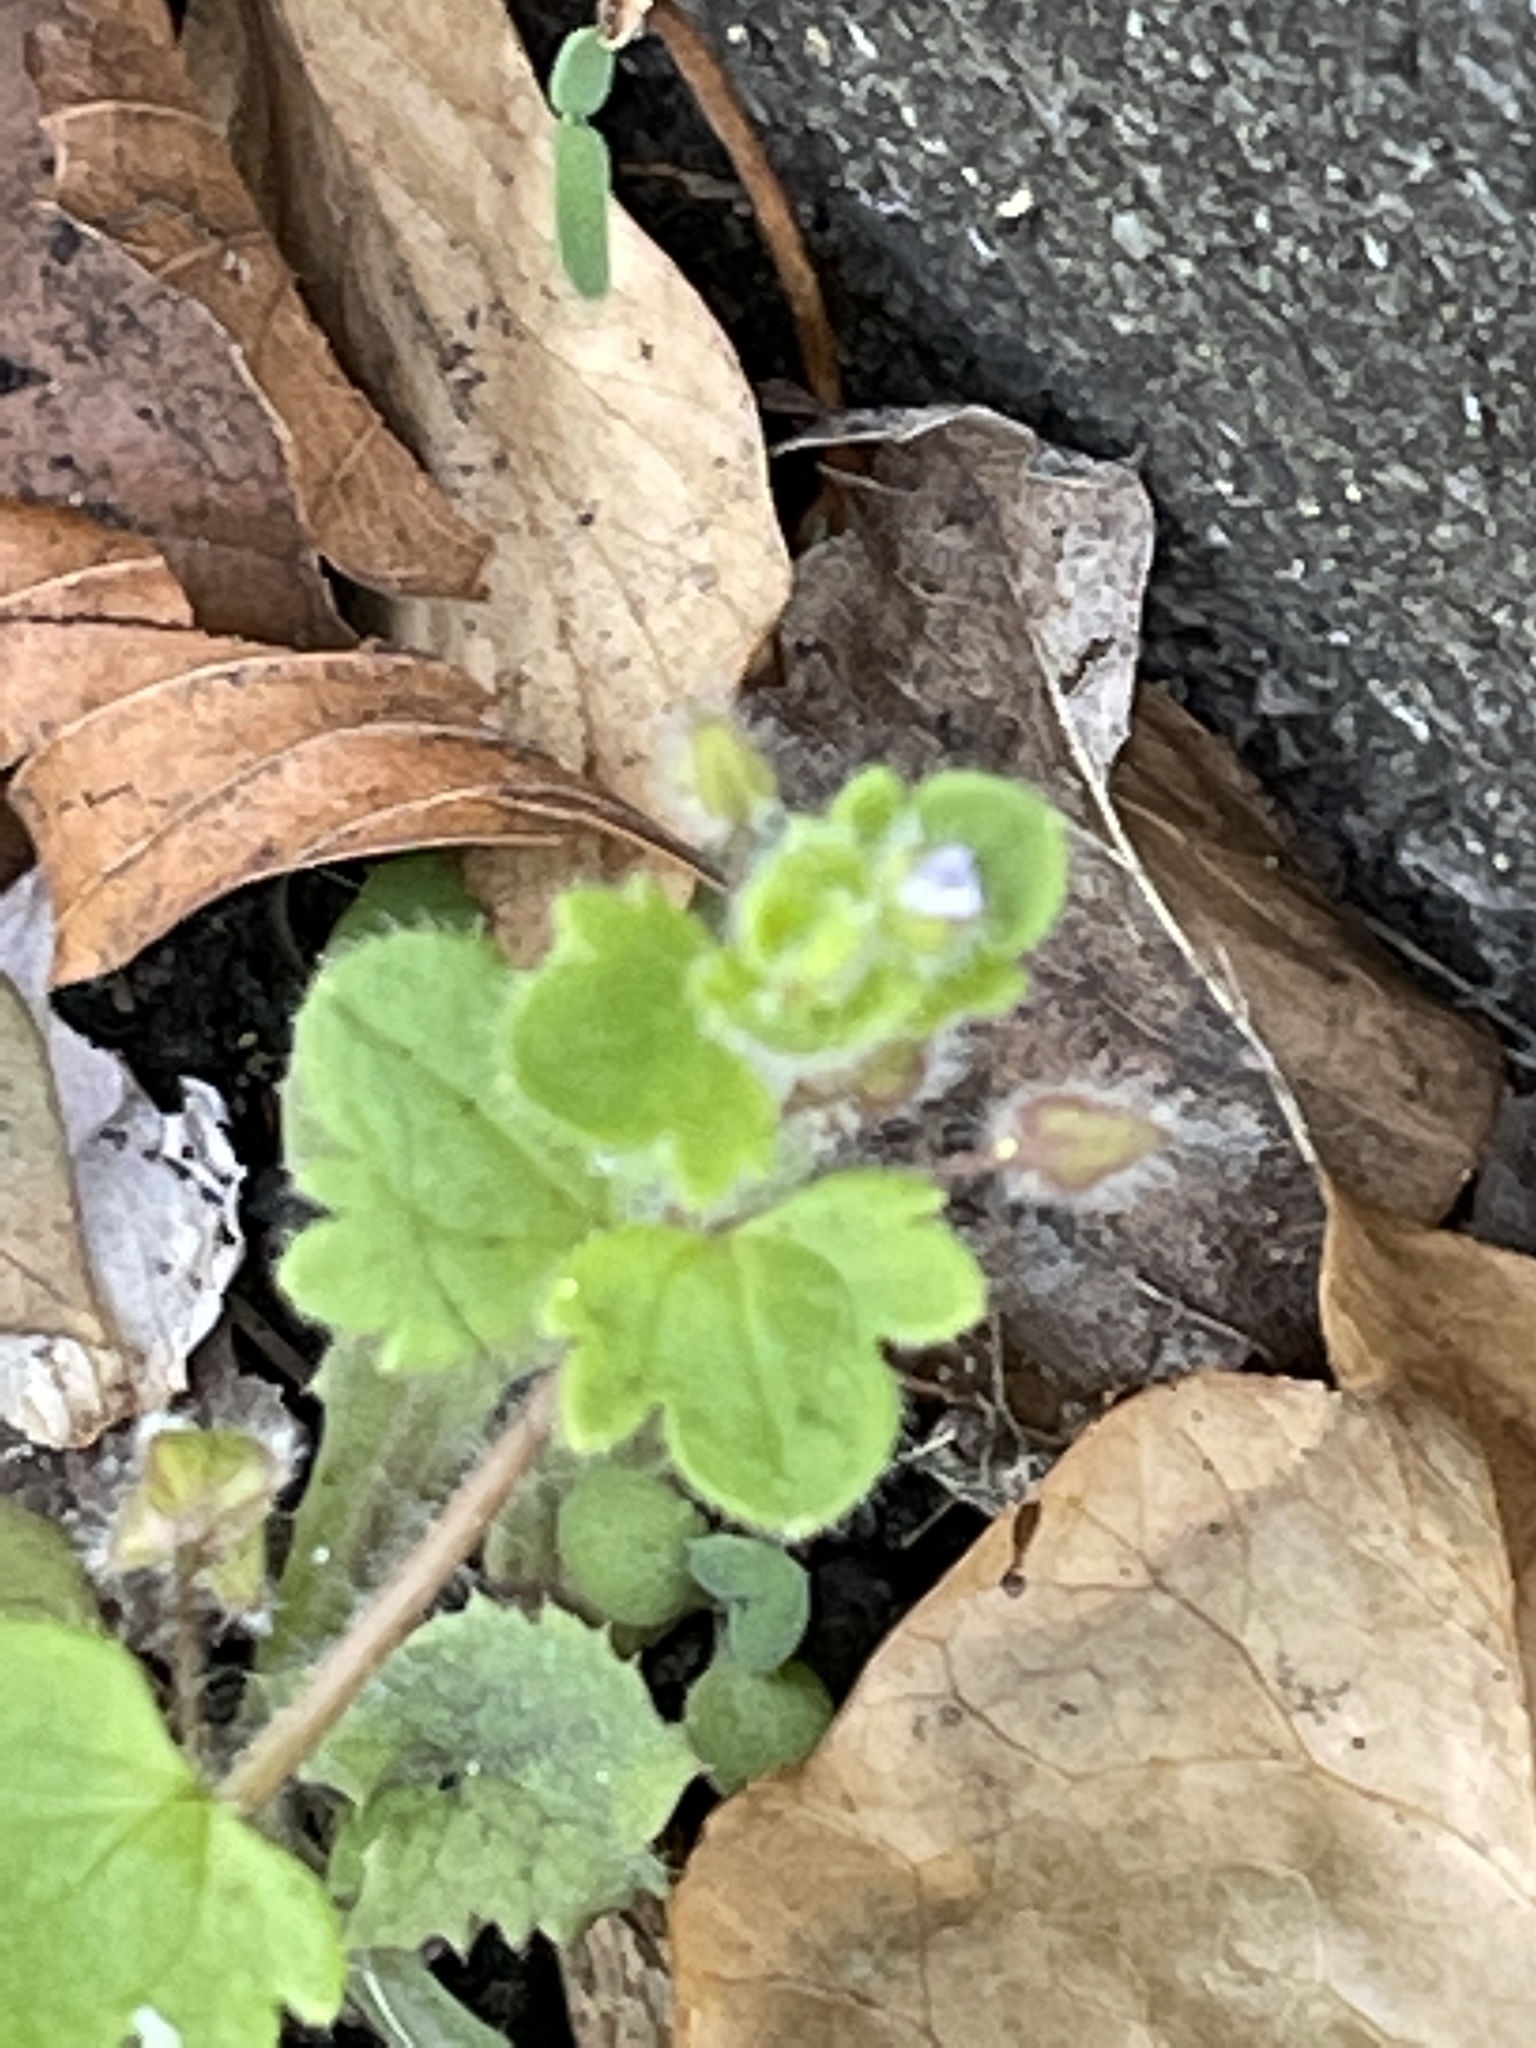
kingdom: Plantae
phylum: Tracheophyta
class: Magnoliopsida
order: Lamiales
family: Plantaginaceae
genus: Veronica
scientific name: Veronica sublobata
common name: False ivy-leaved speedwell
